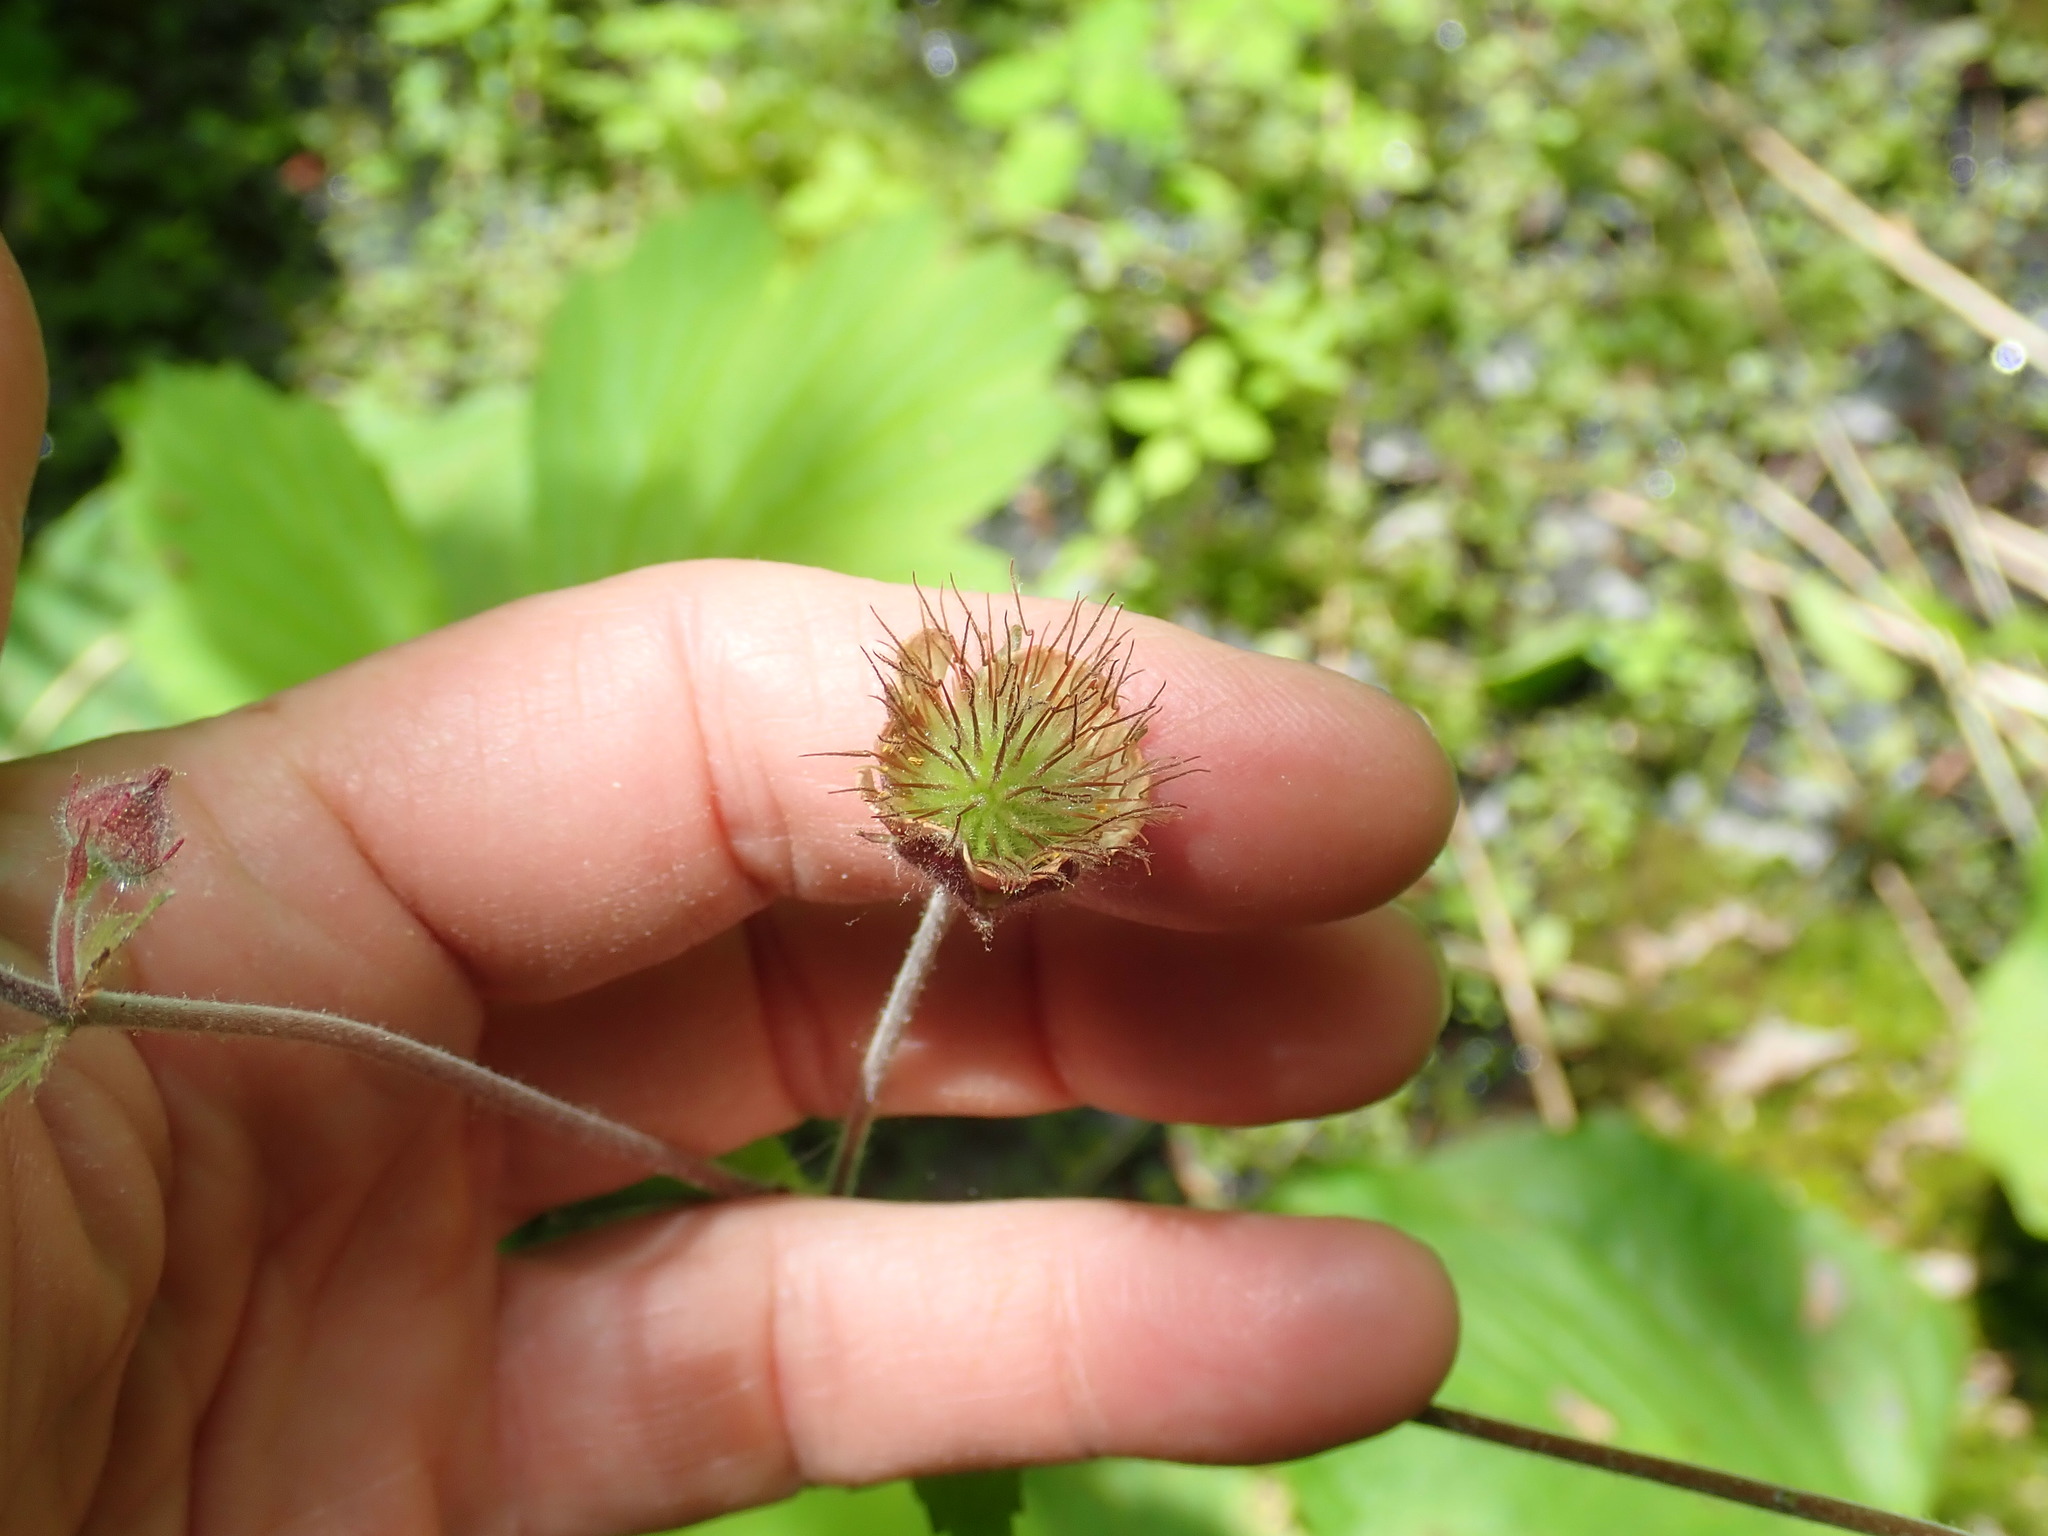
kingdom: Plantae
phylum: Tracheophyta
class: Magnoliopsida
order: Rosales
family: Rosaceae
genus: Geum
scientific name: Geum rivale
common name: Water avens
